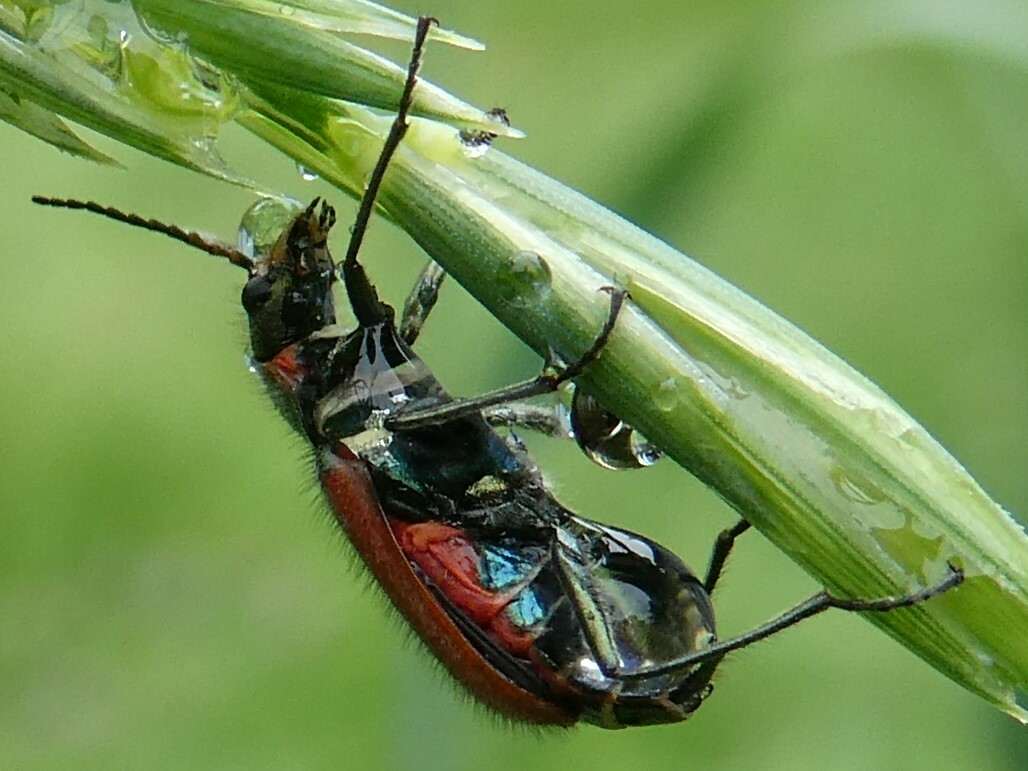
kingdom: Animalia
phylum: Arthropoda
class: Insecta
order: Coleoptera
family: Melyridae
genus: Malachius
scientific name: Malachius aeneus
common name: Scarlet malachite beetle
